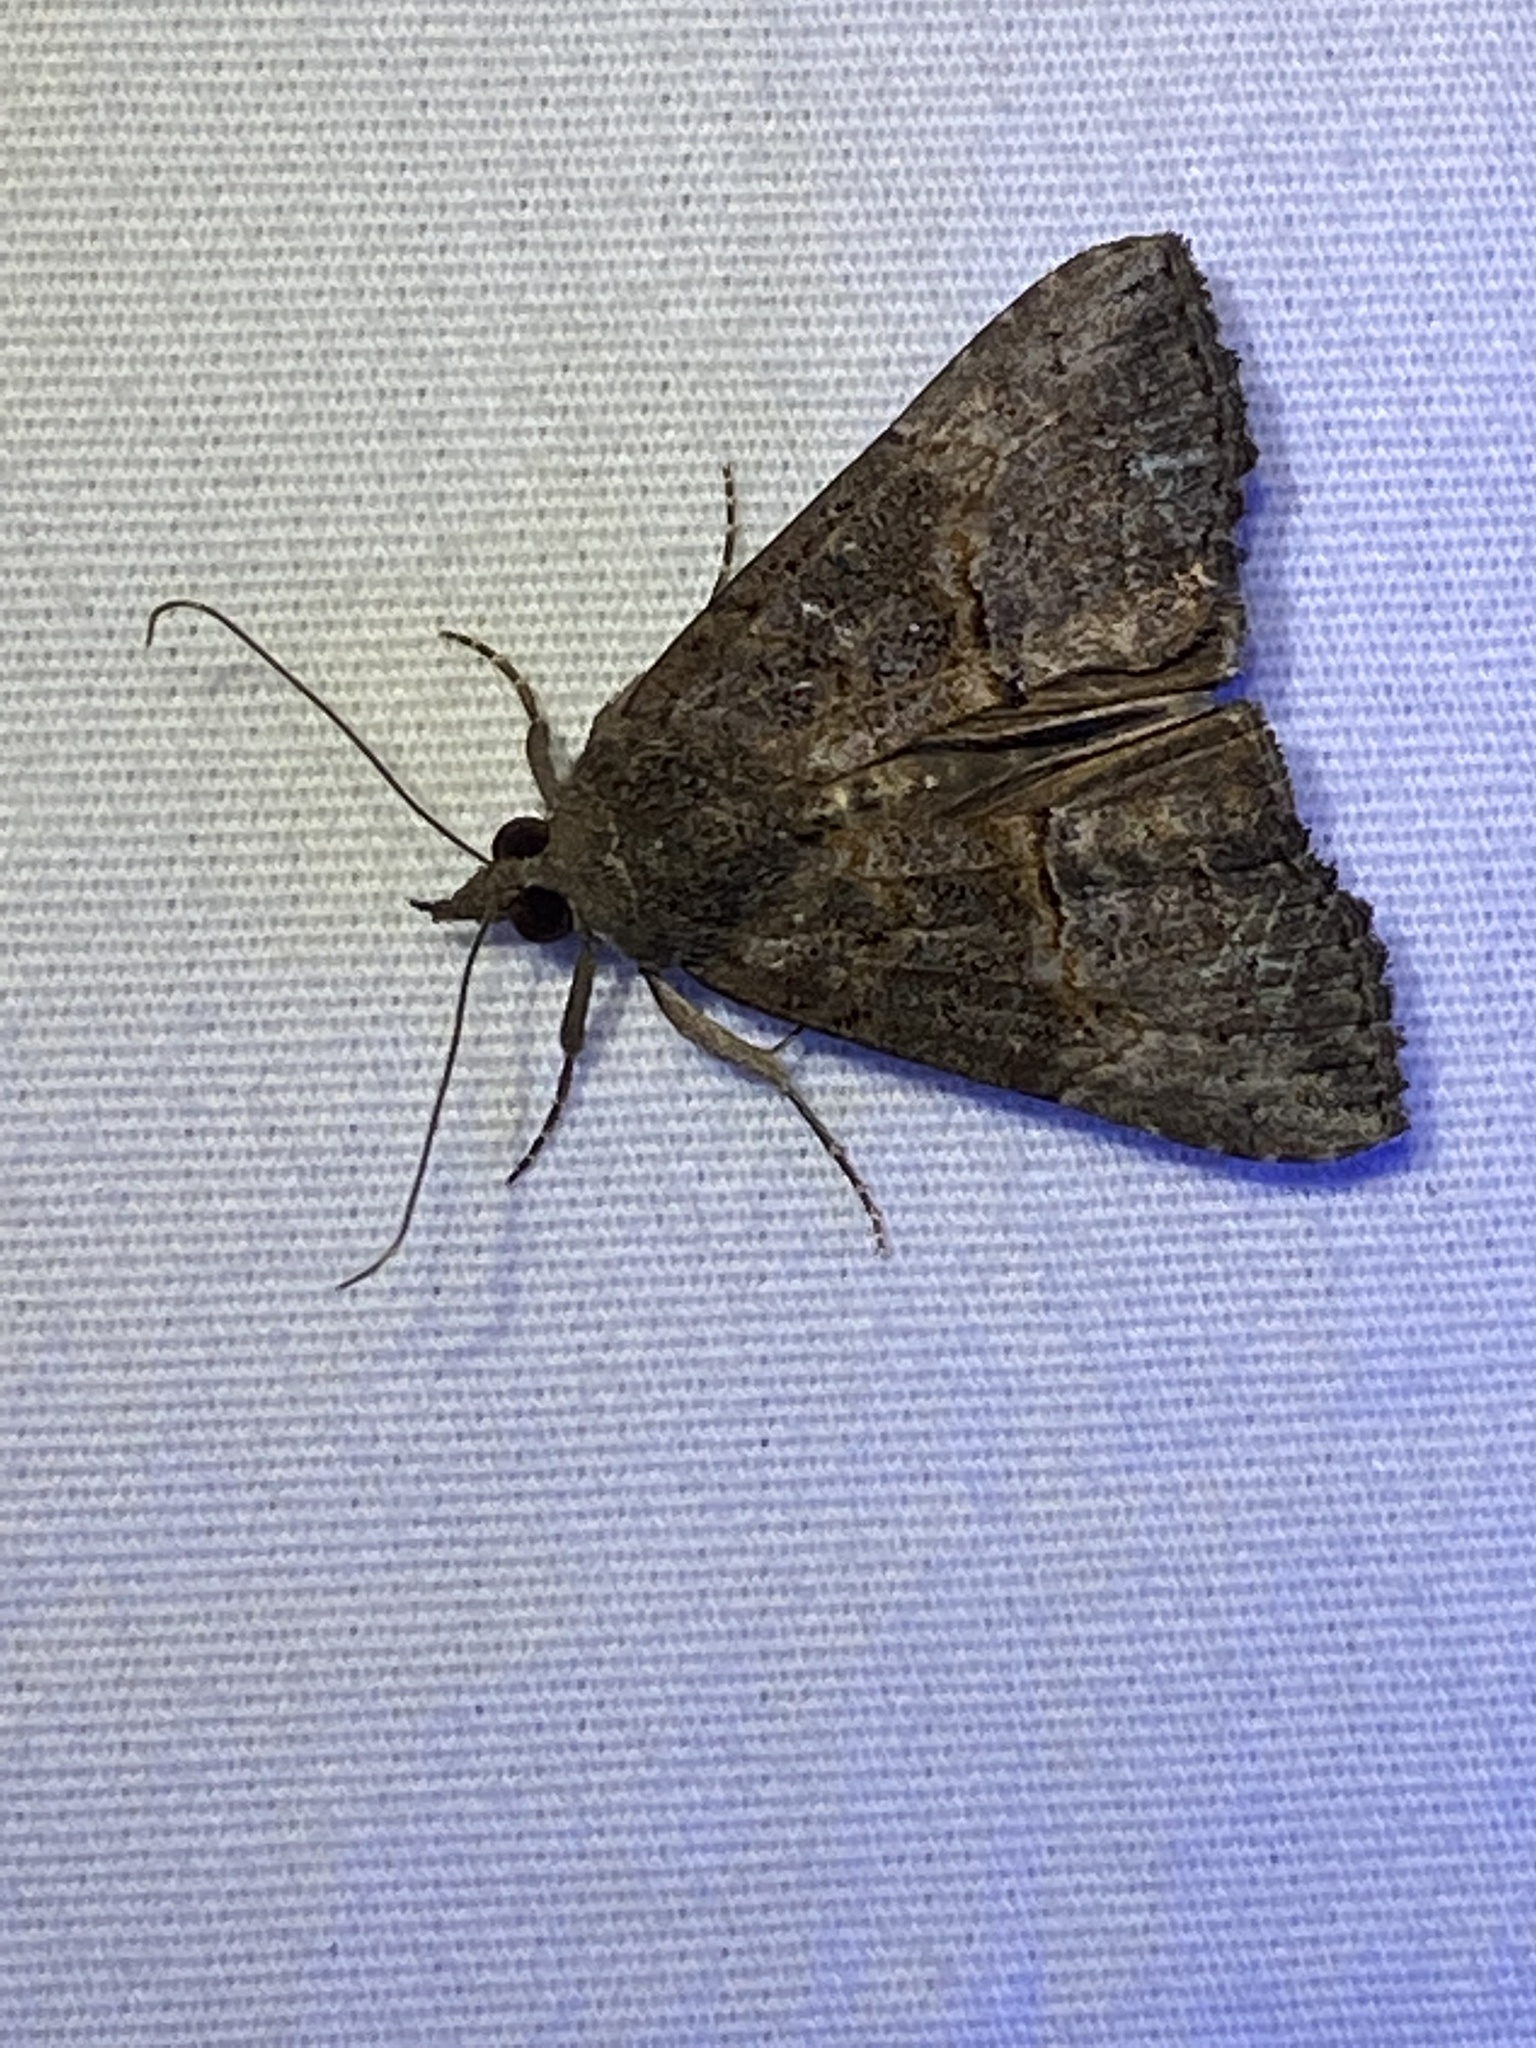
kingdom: Animalia
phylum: Arthropoda
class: Insecta
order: Lepidoptera
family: Erebidae
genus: Hypena
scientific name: Hypena scabra
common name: Green cloverworm
